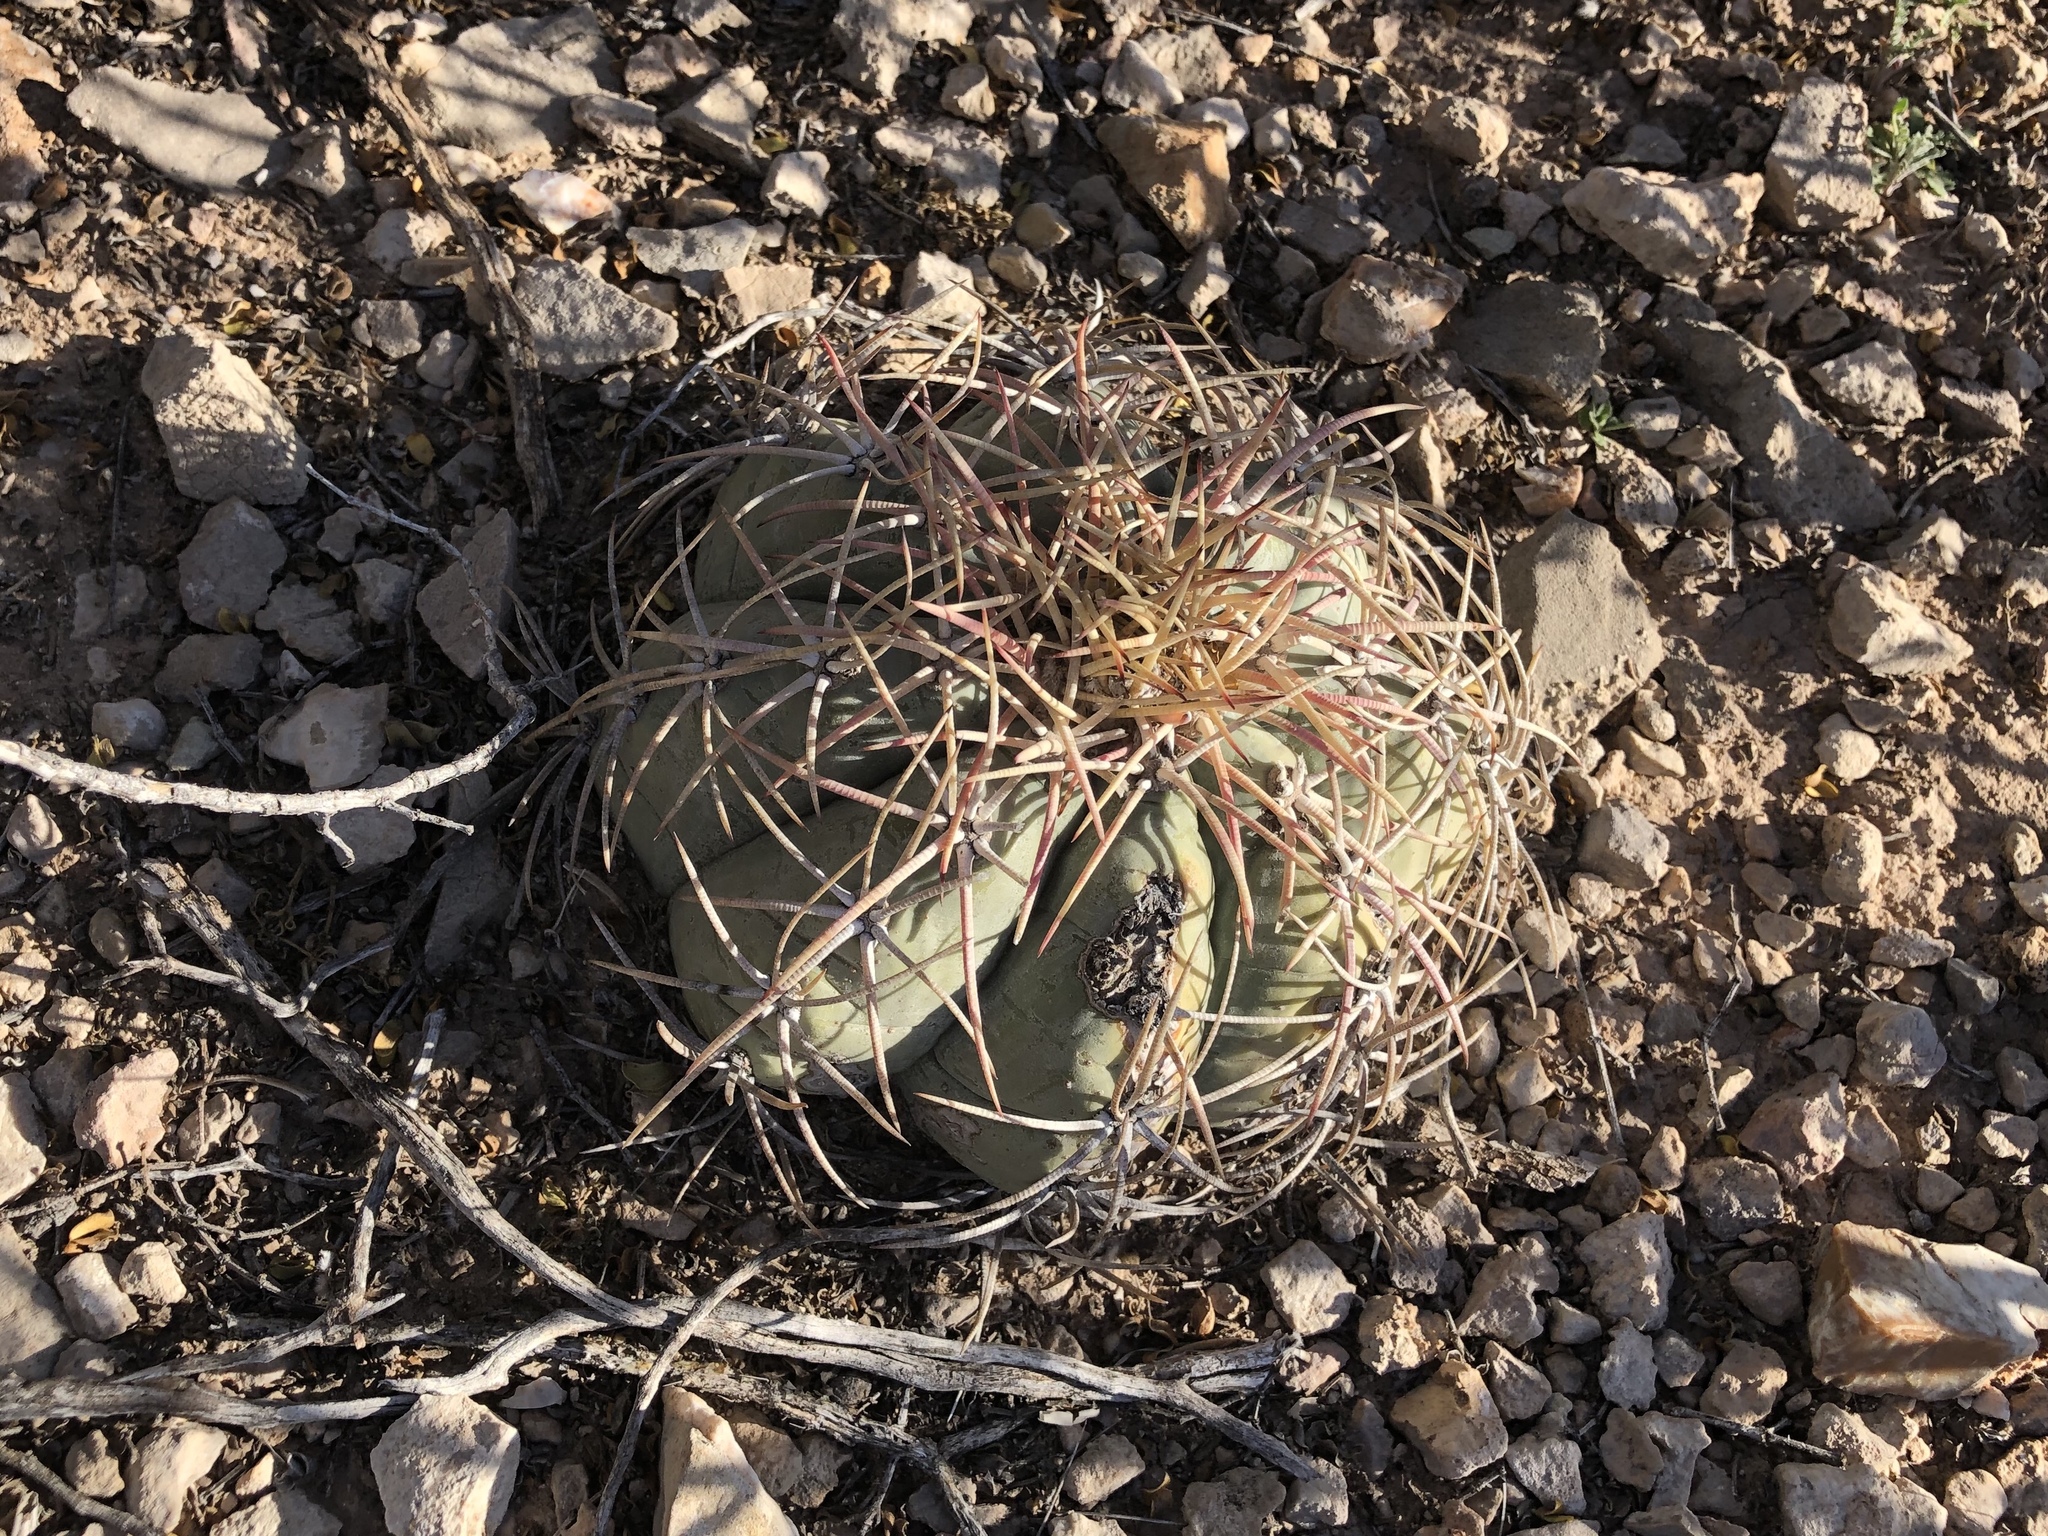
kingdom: Plantae
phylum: Tracheophyta
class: Magnoliopsida
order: Caryophyllales
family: Cactaceae
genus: Echinocactus
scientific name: Echinocactus horizonthalonius
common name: Devilshead
